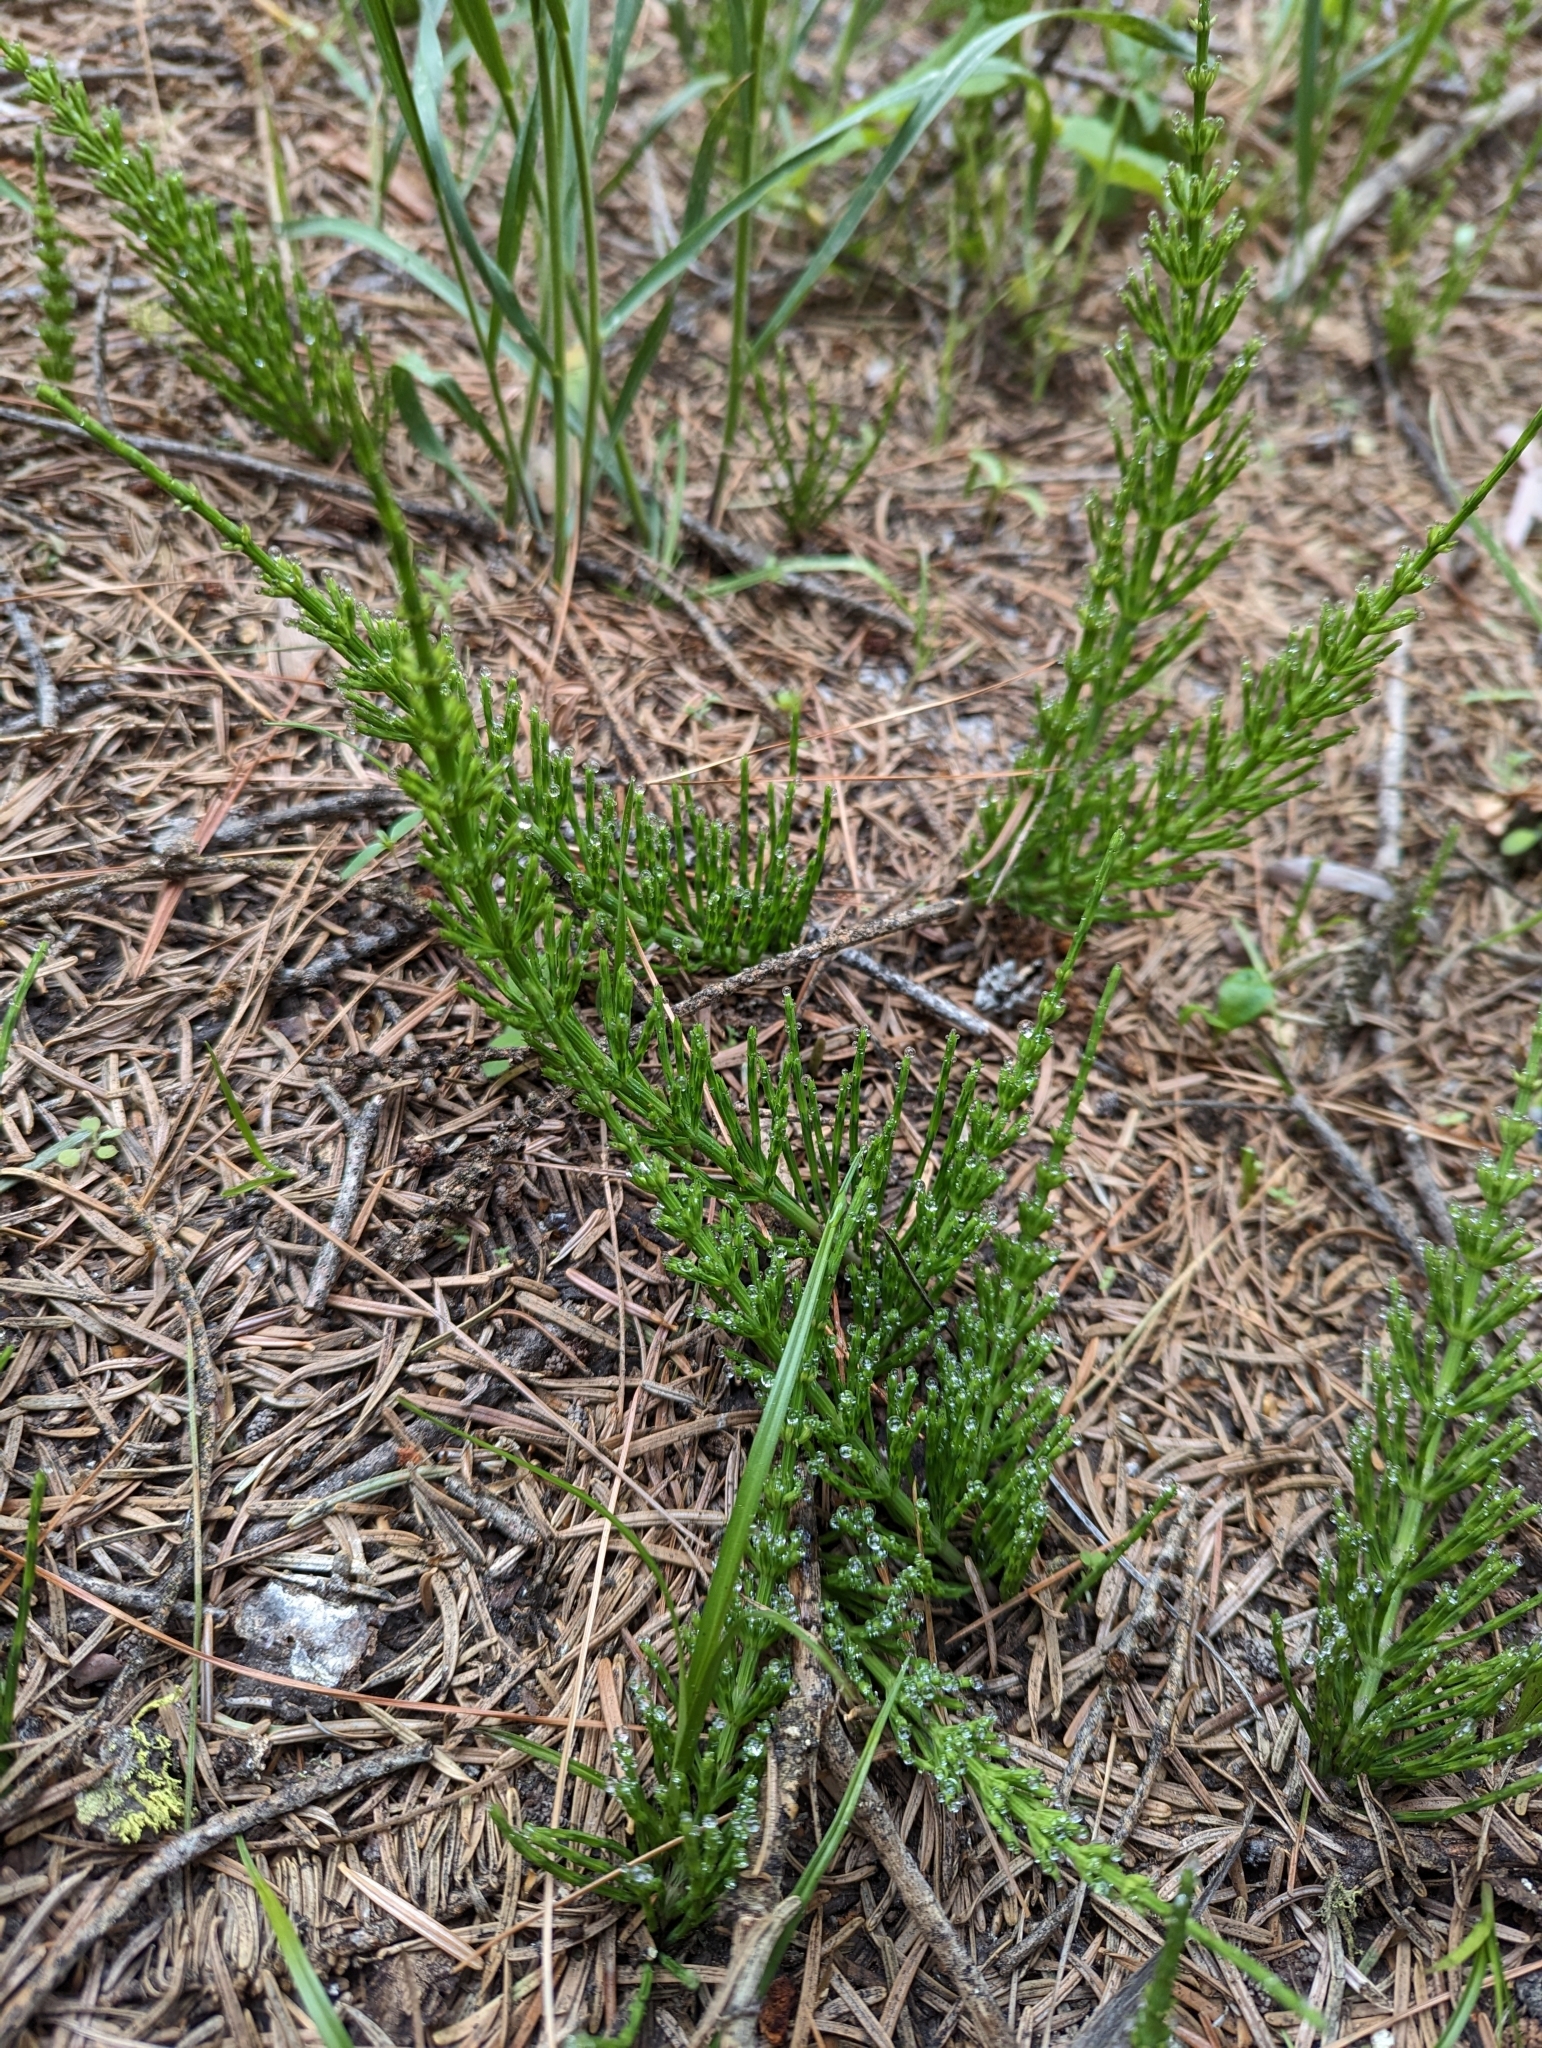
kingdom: Plantae
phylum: Tracheophyta
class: Polypodiopsida
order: Equisetales
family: Equisetaceae
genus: Equisetum
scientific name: Equisetum arvense
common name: Field horsetail
